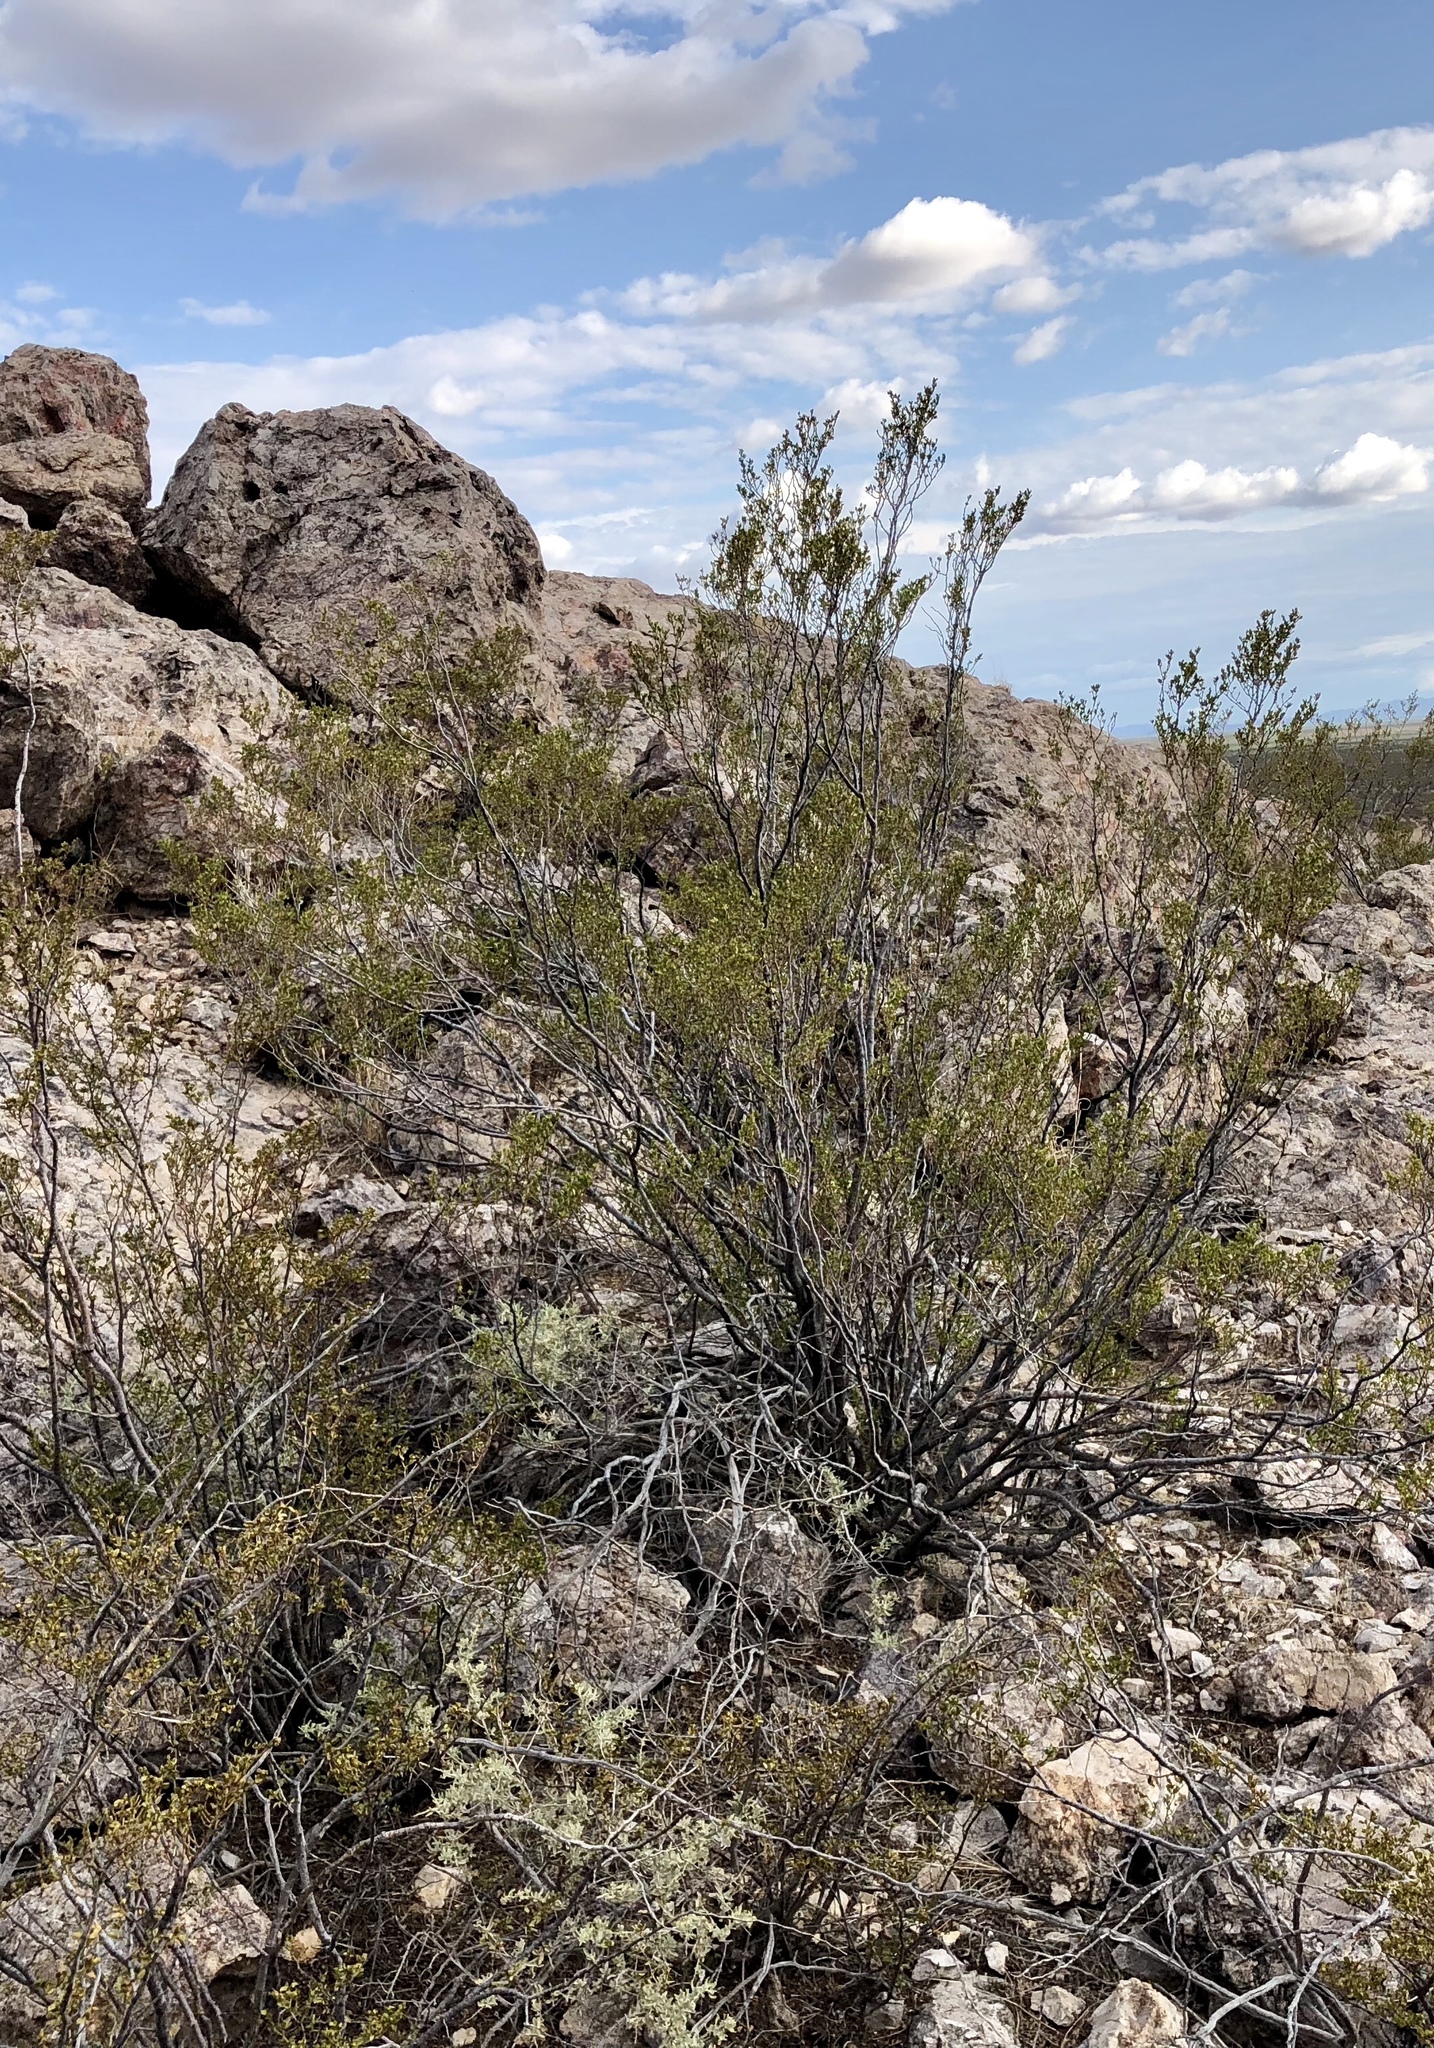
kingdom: Plantae
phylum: Tracheophyta
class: Magnoliopsida
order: Zygophyllales
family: Zygophyllaceae
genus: Larrea
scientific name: Larrea tridentata
